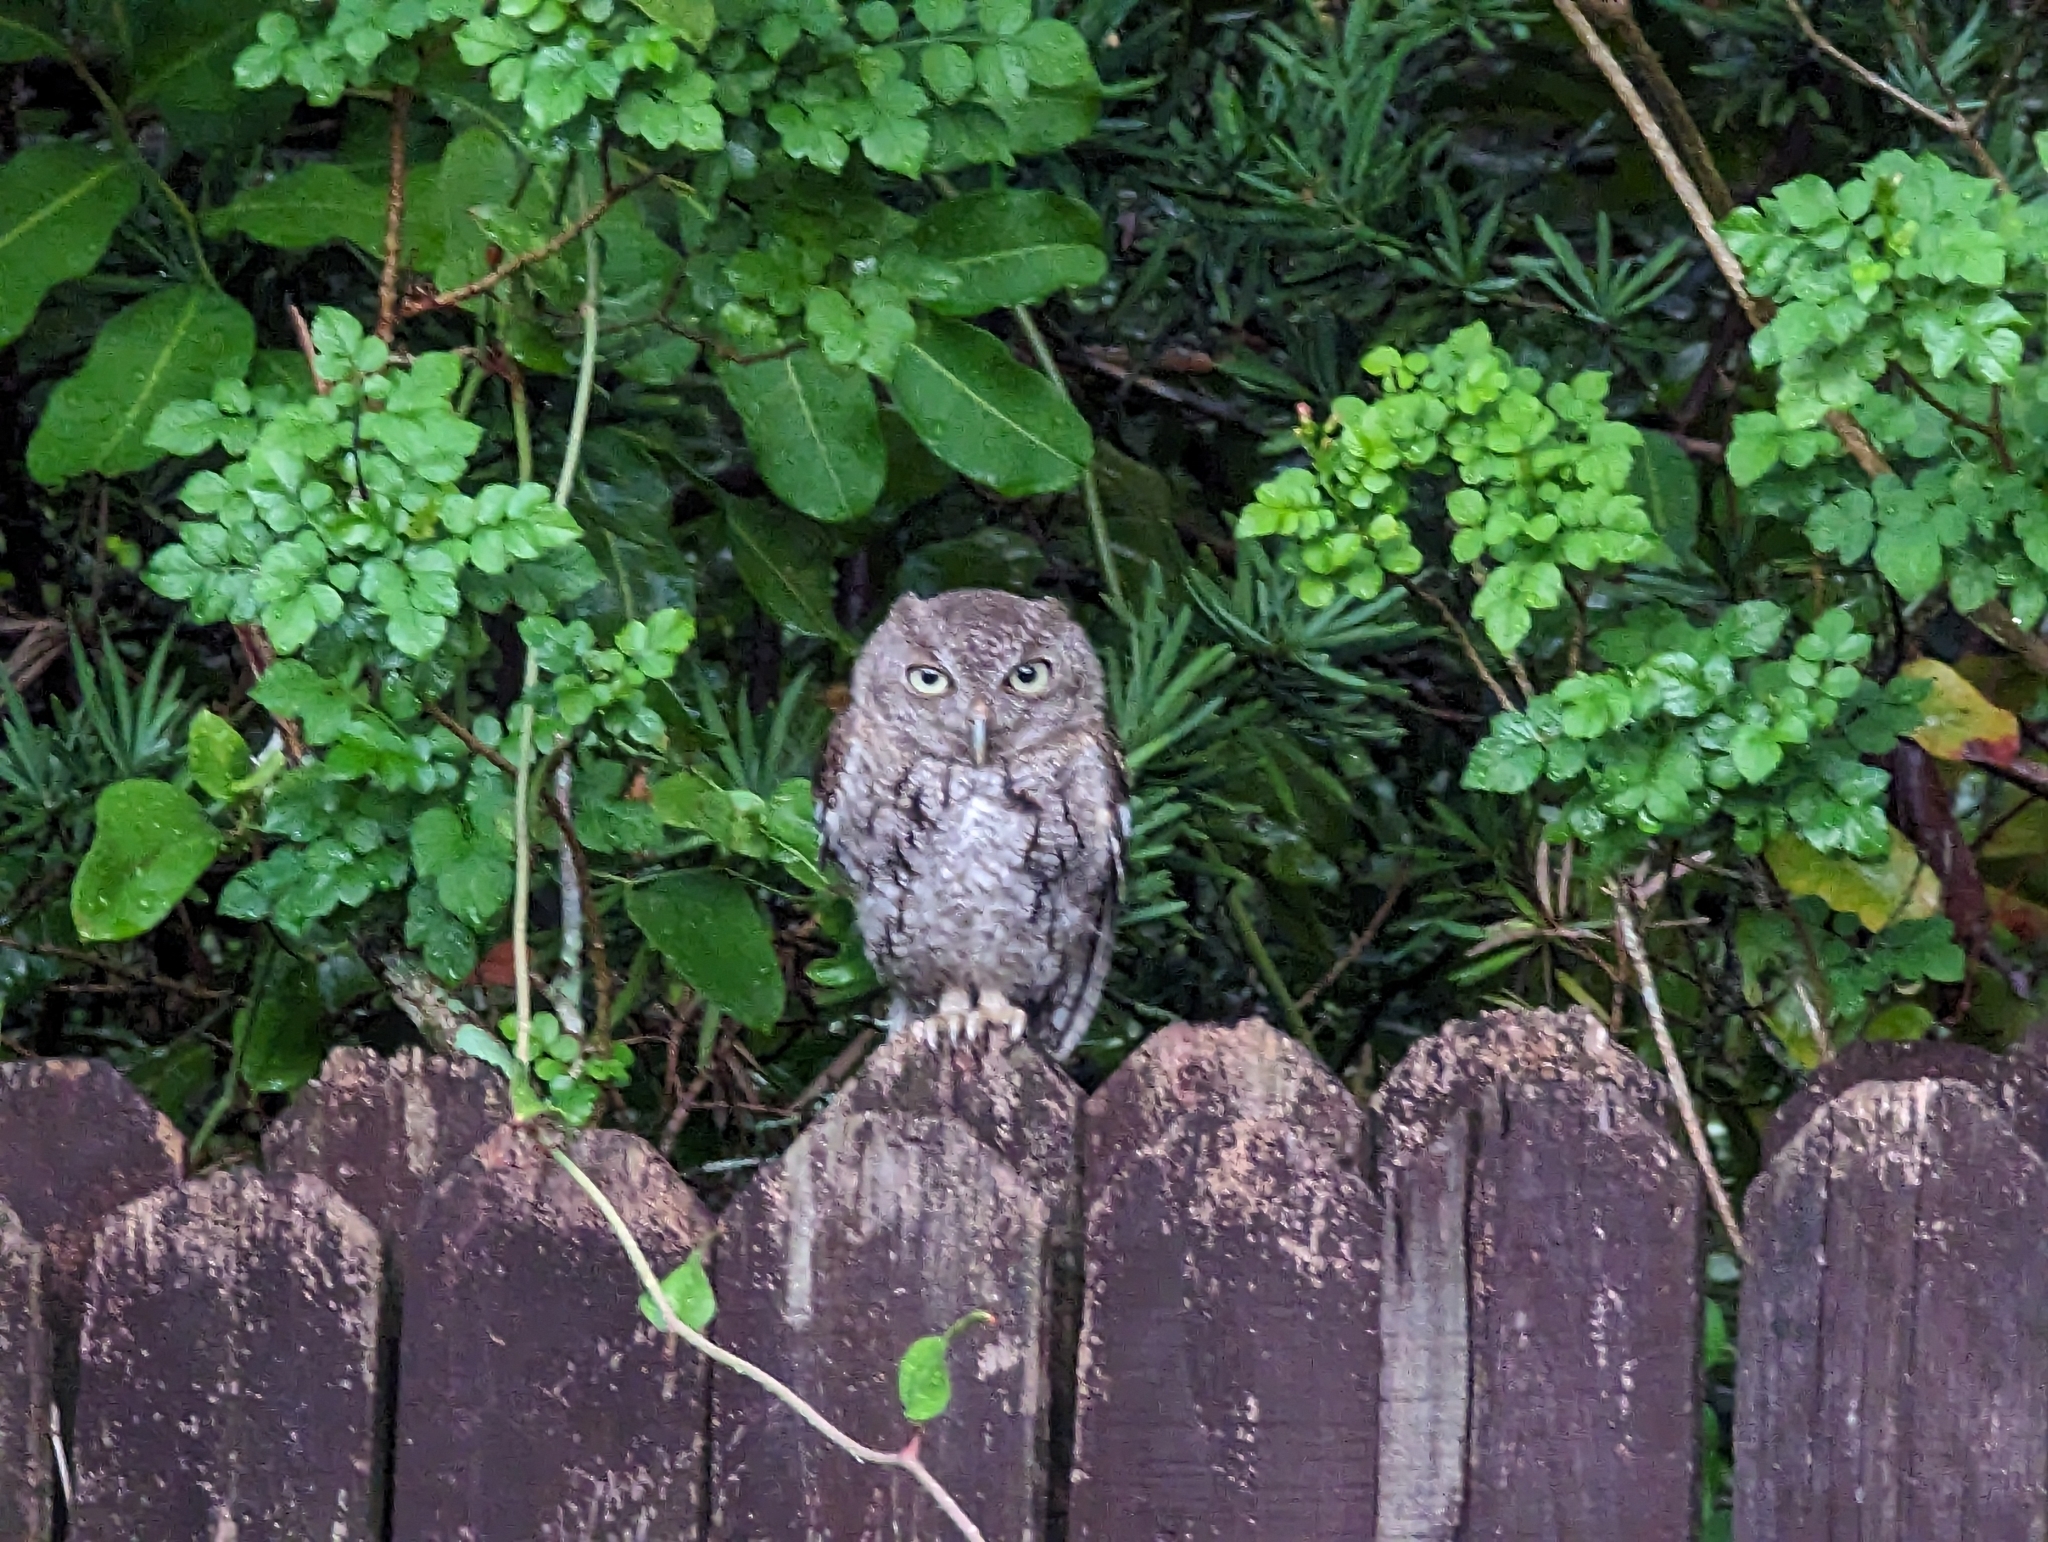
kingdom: Animalia
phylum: Chordata
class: Aves
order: Strigiformes
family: Strigidae
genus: Megascops
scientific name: Megascops asio
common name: Eastern screech-owl
